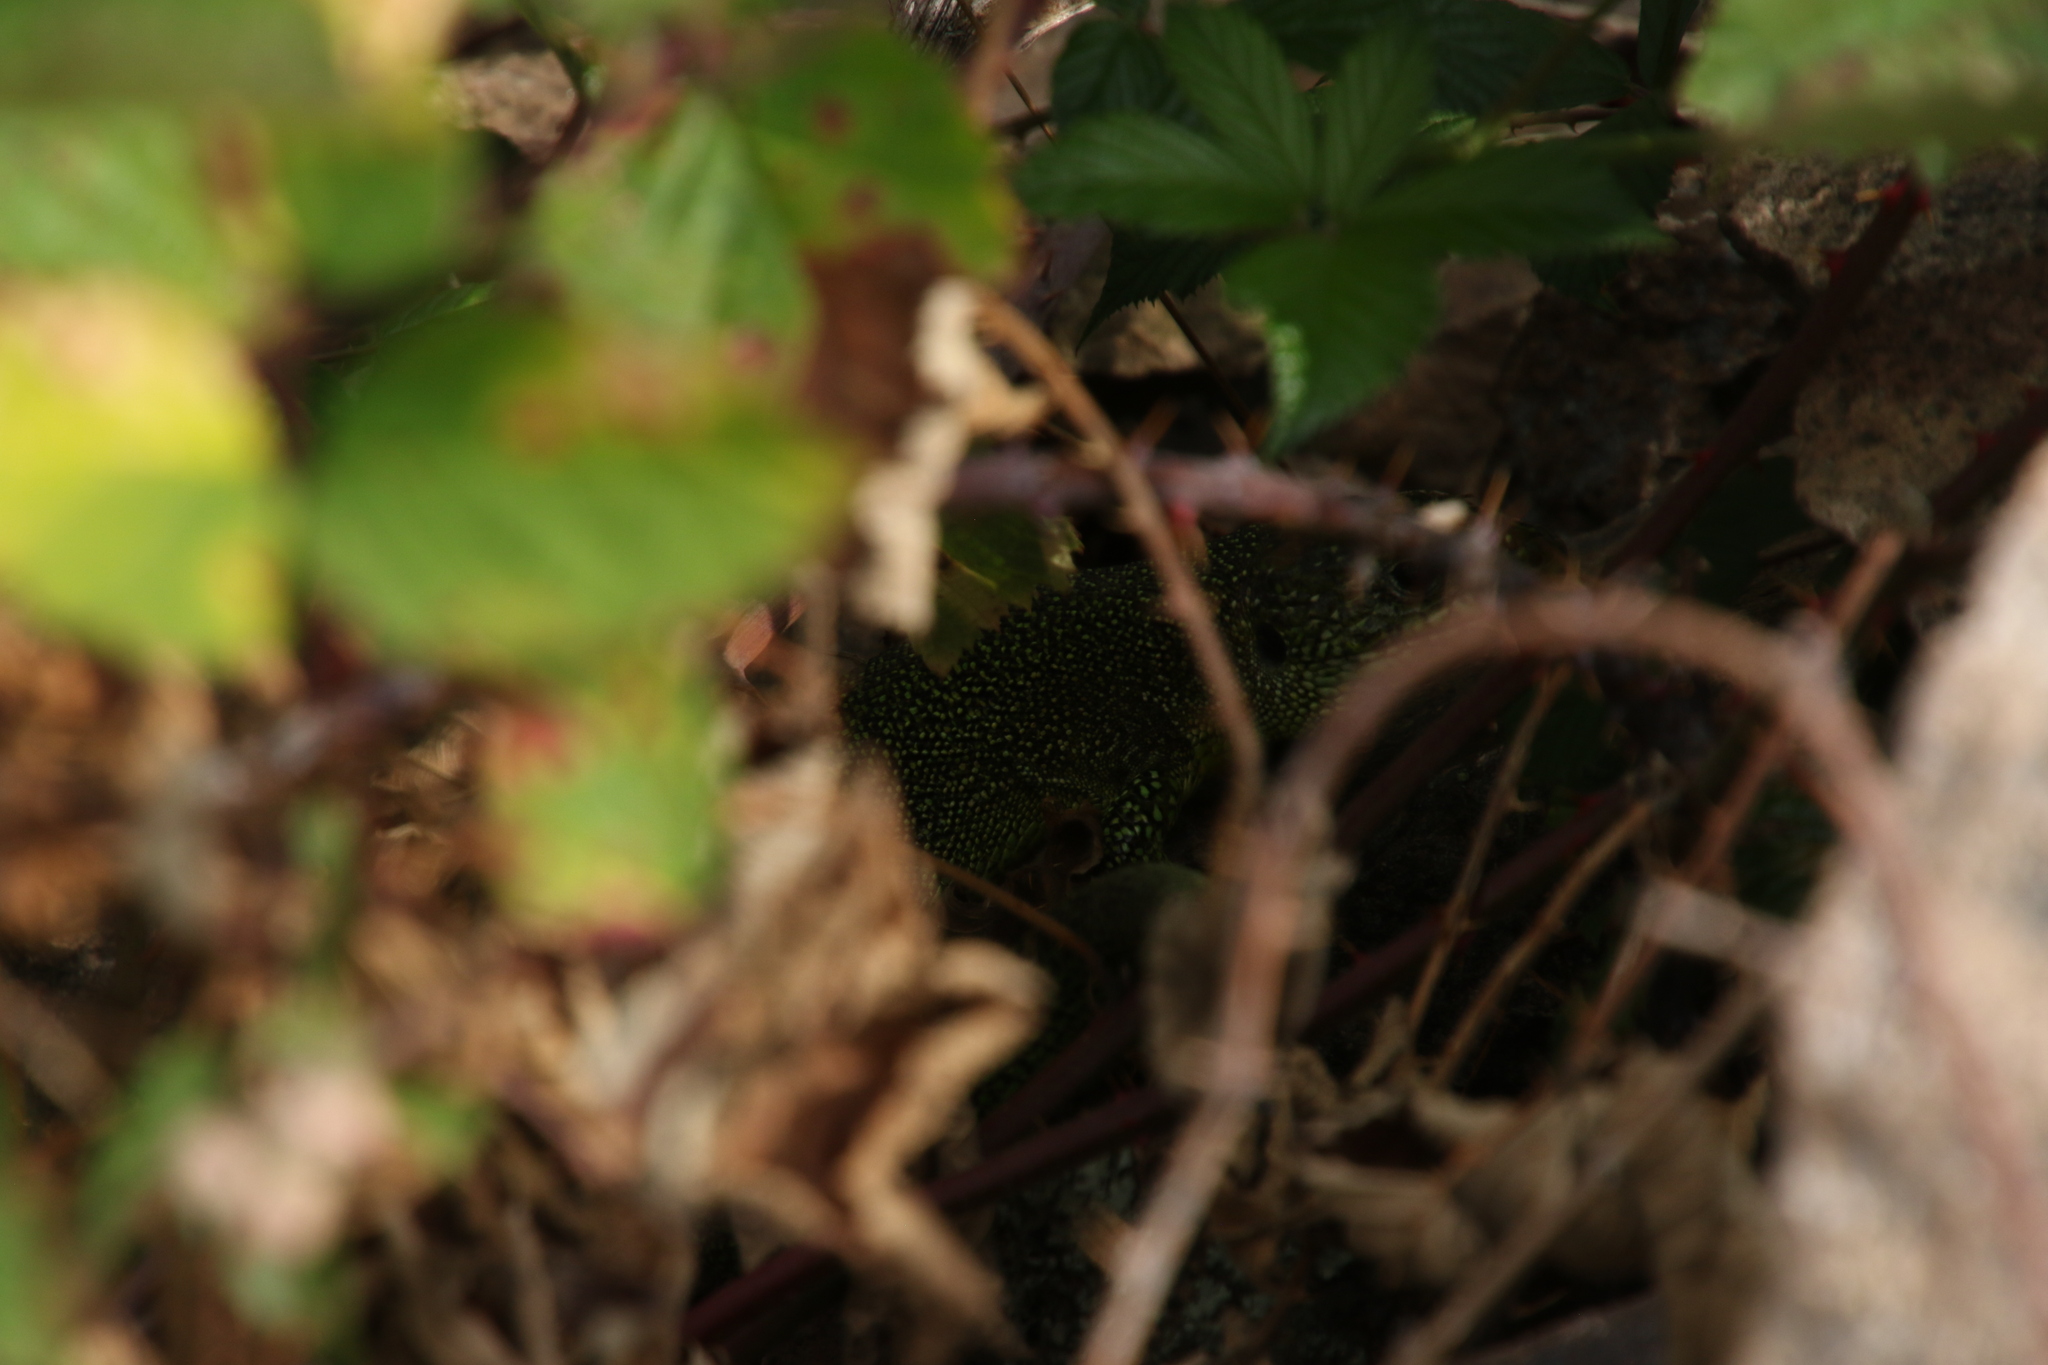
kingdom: Animalia
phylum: Chordata
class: Squamata
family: Lacertidae
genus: Lacerta
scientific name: Lacerta bilineata
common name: Western green lizard
